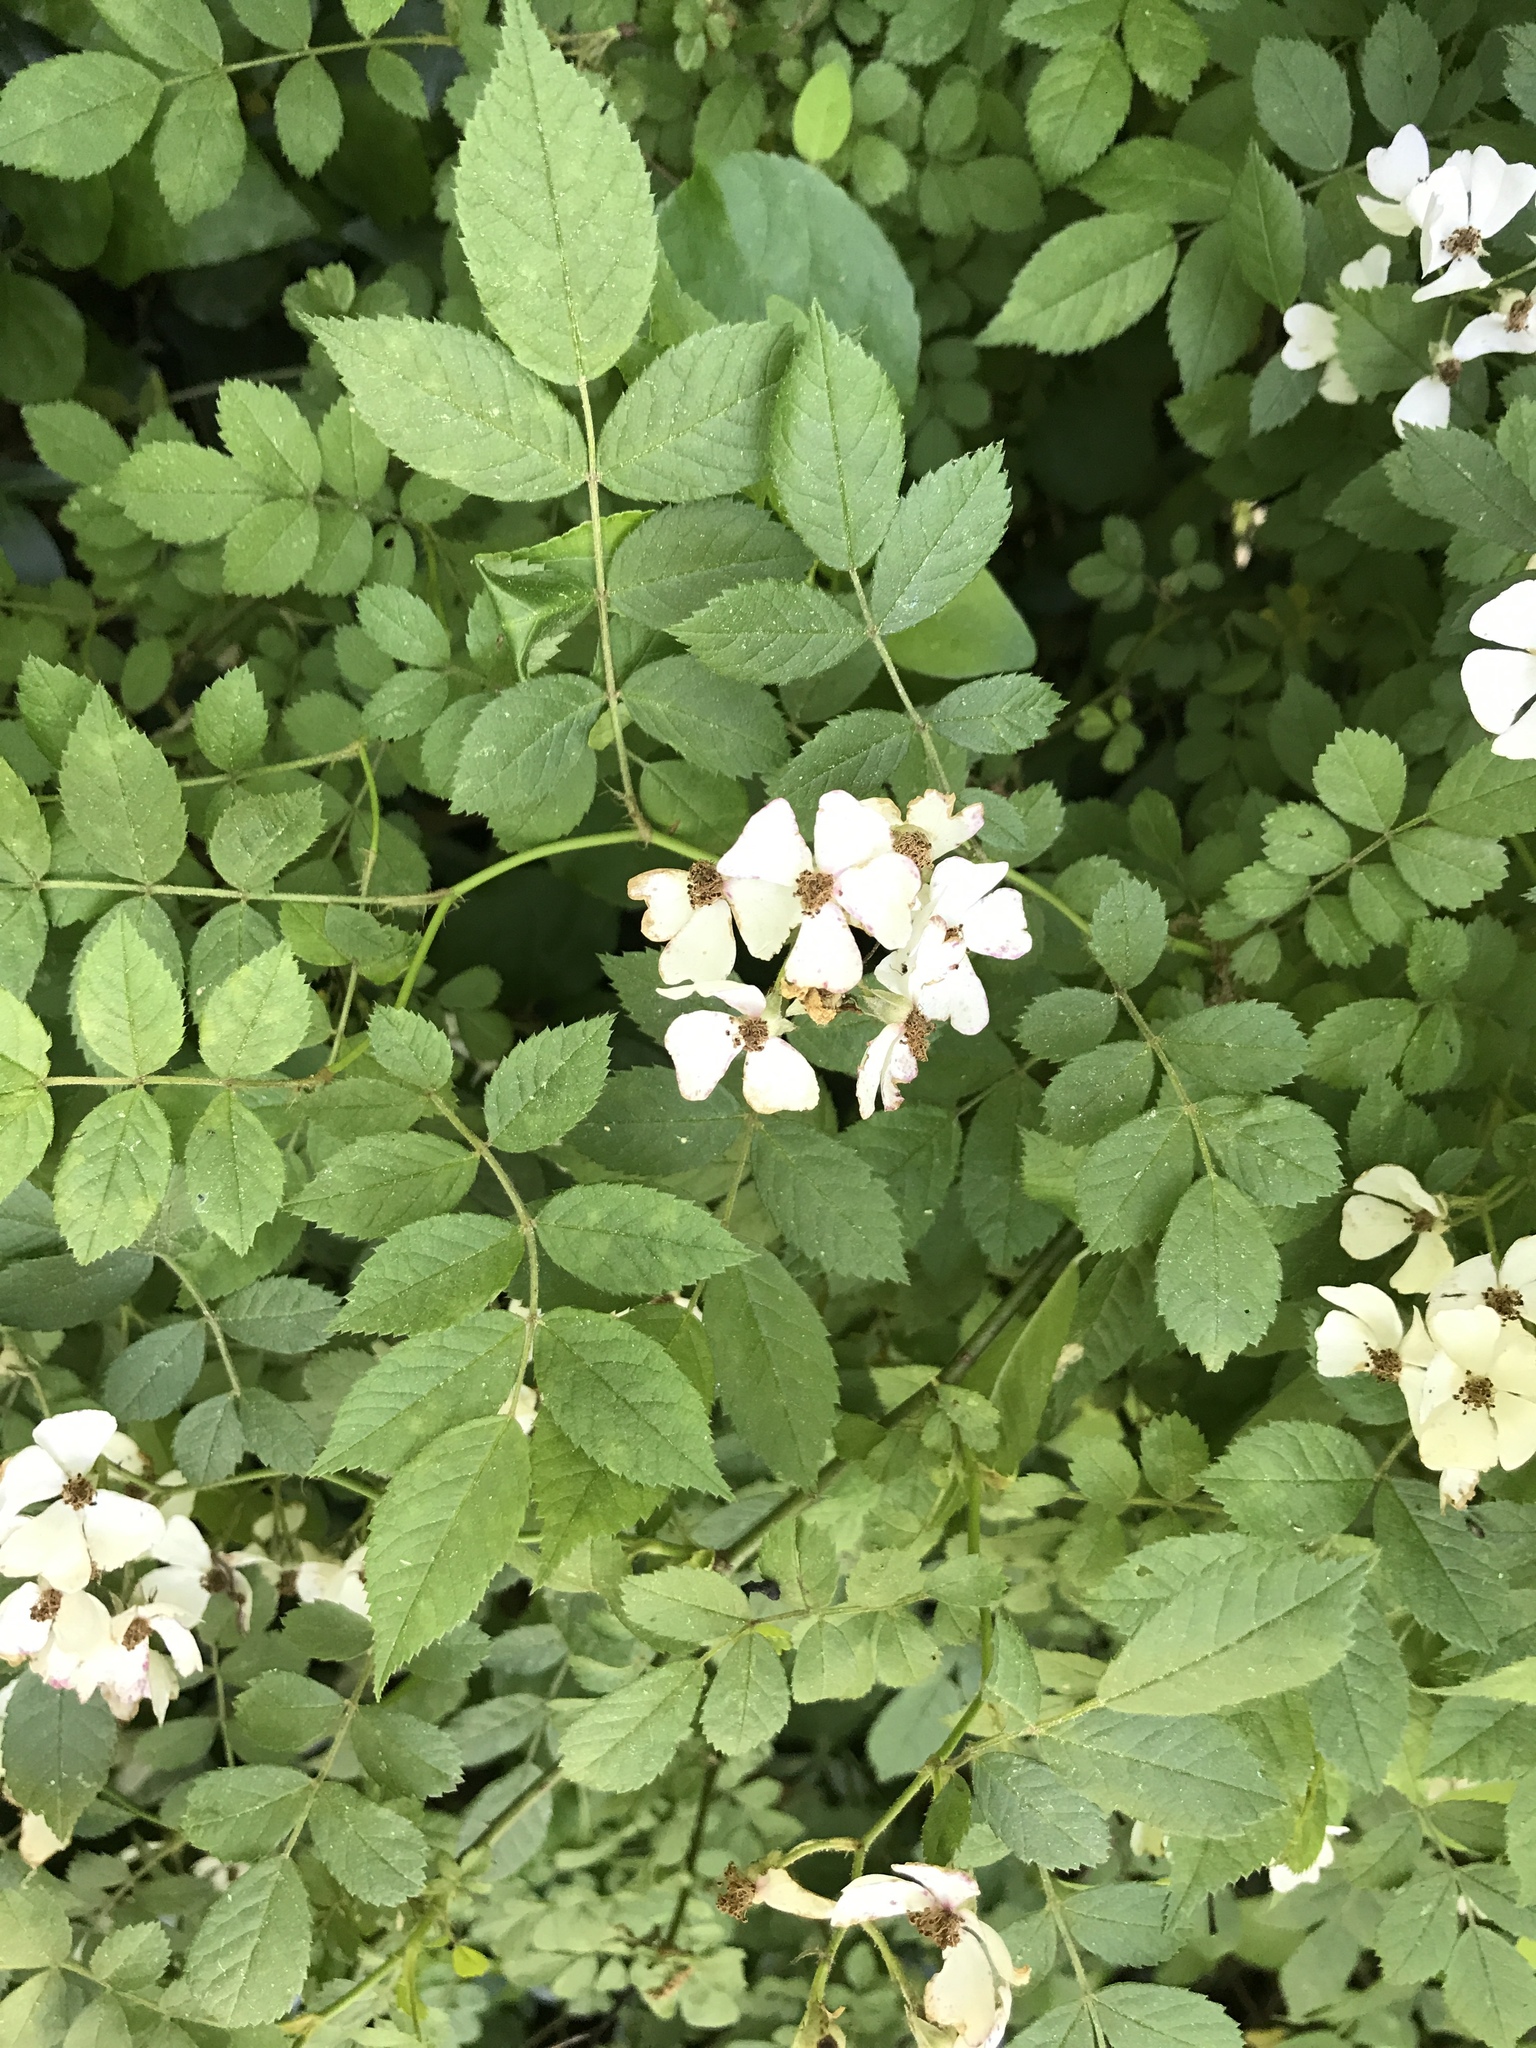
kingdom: Plantae
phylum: Tracheophyta
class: Magnoliopsida
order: Rosales
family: Rosaceae
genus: Rosa
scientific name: Rosa multiflora
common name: Multiflora rose
